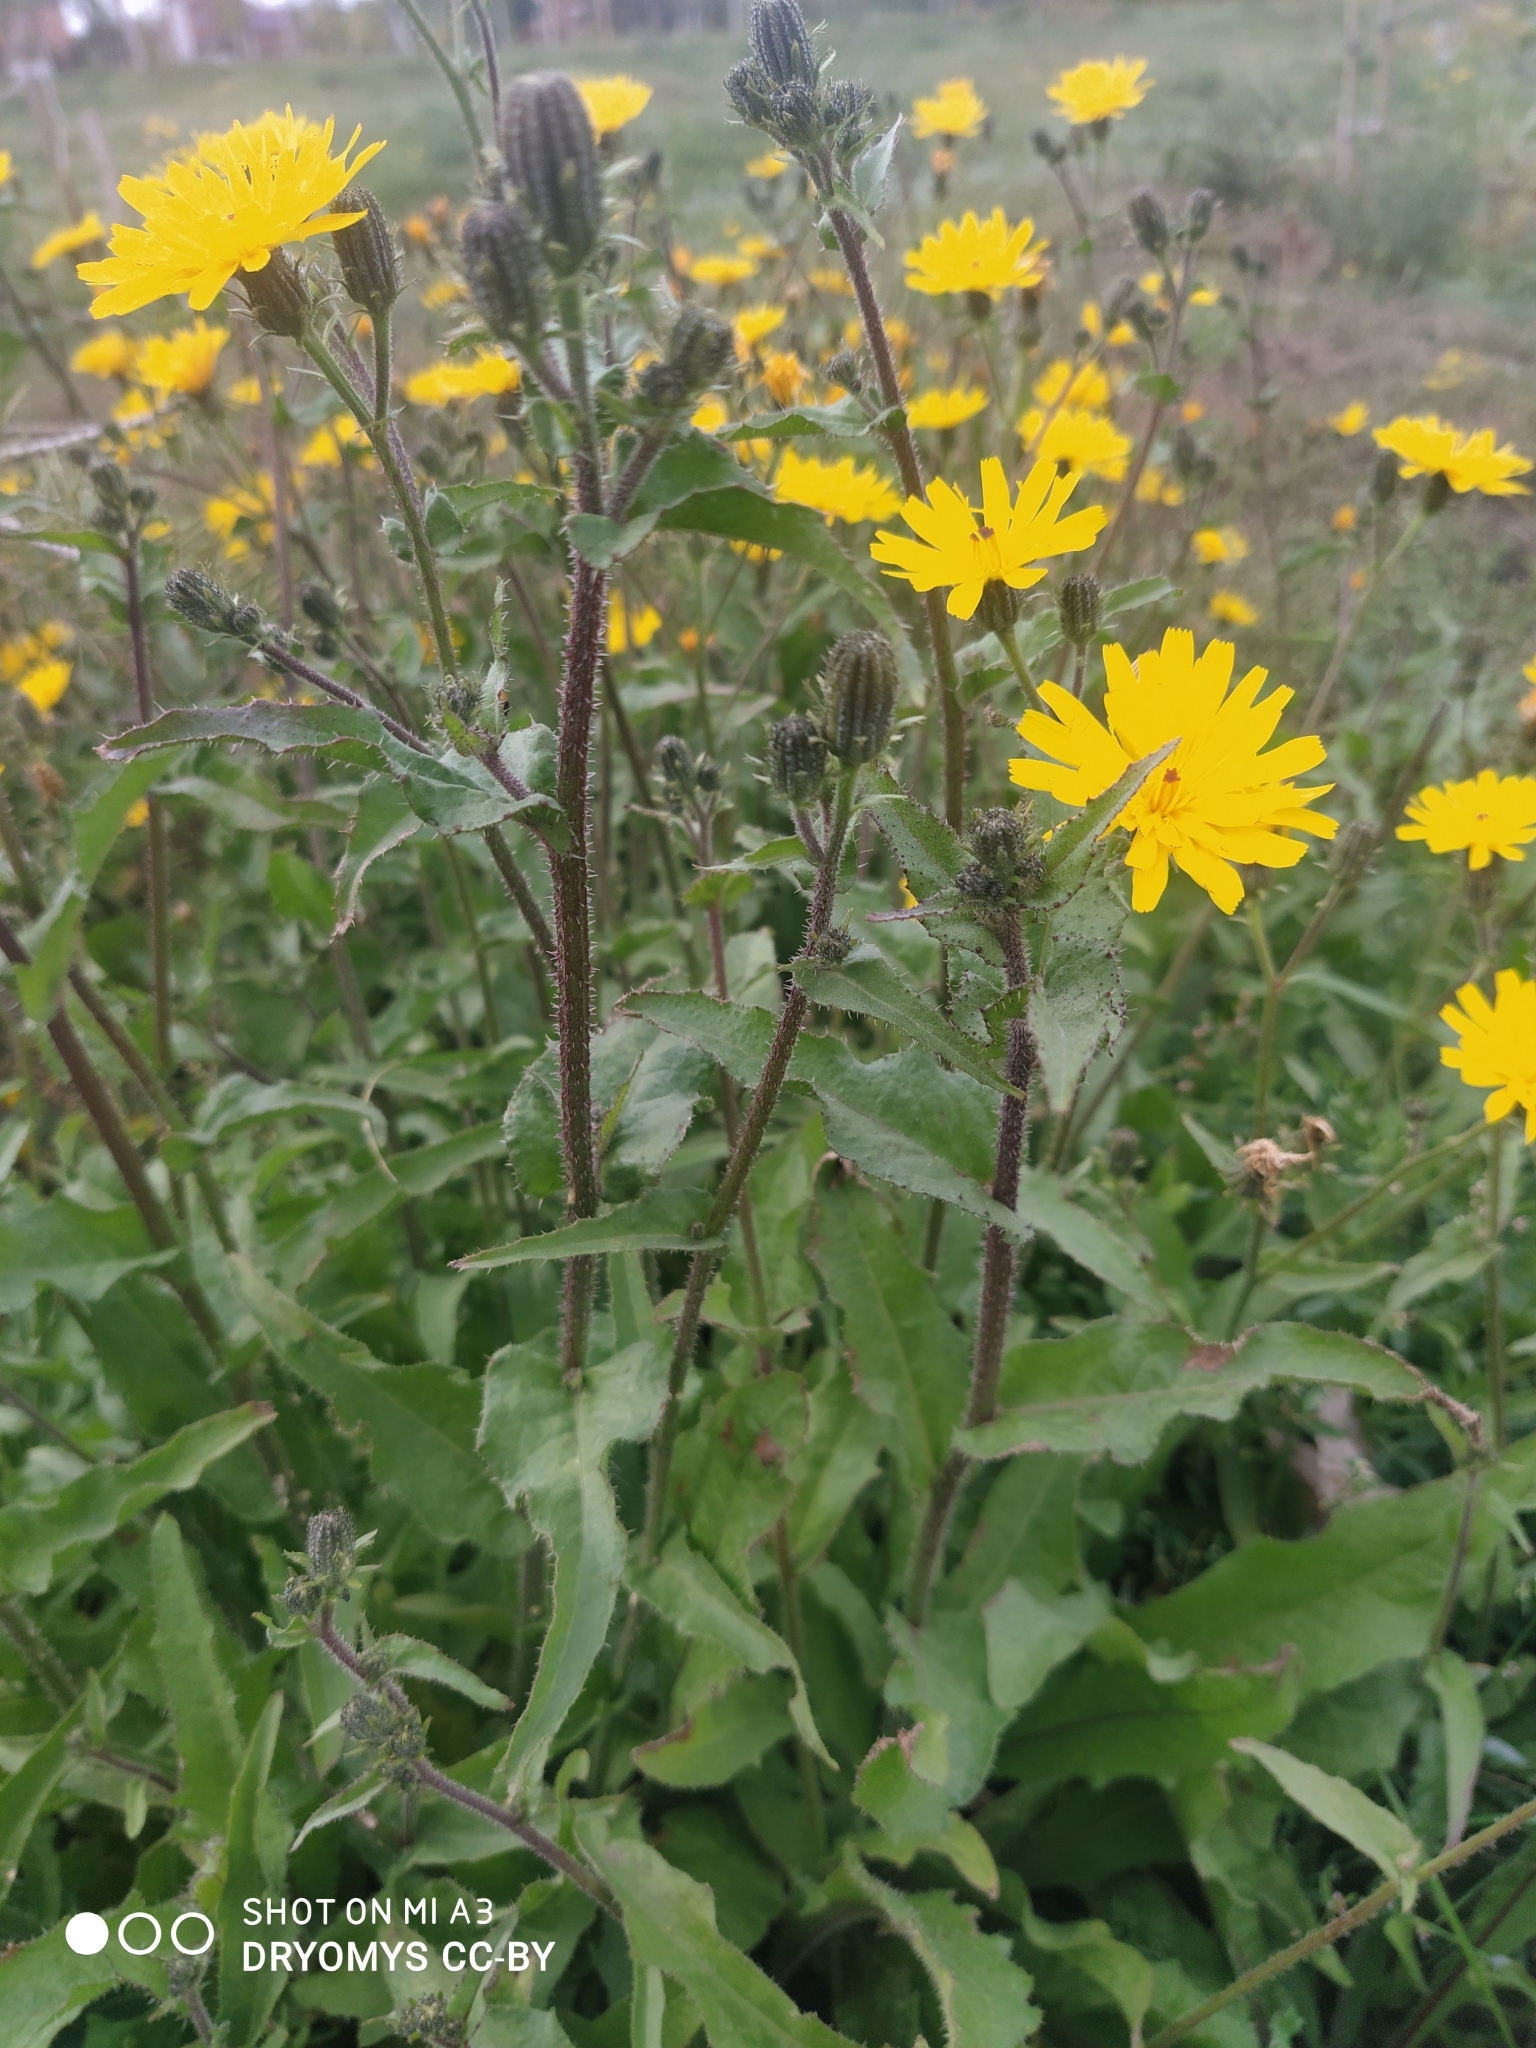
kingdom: Plantae
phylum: Tracheophyta
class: Magnoliopsida
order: Asterales
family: Asteraceae
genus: Picris
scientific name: Picris nuristanica
